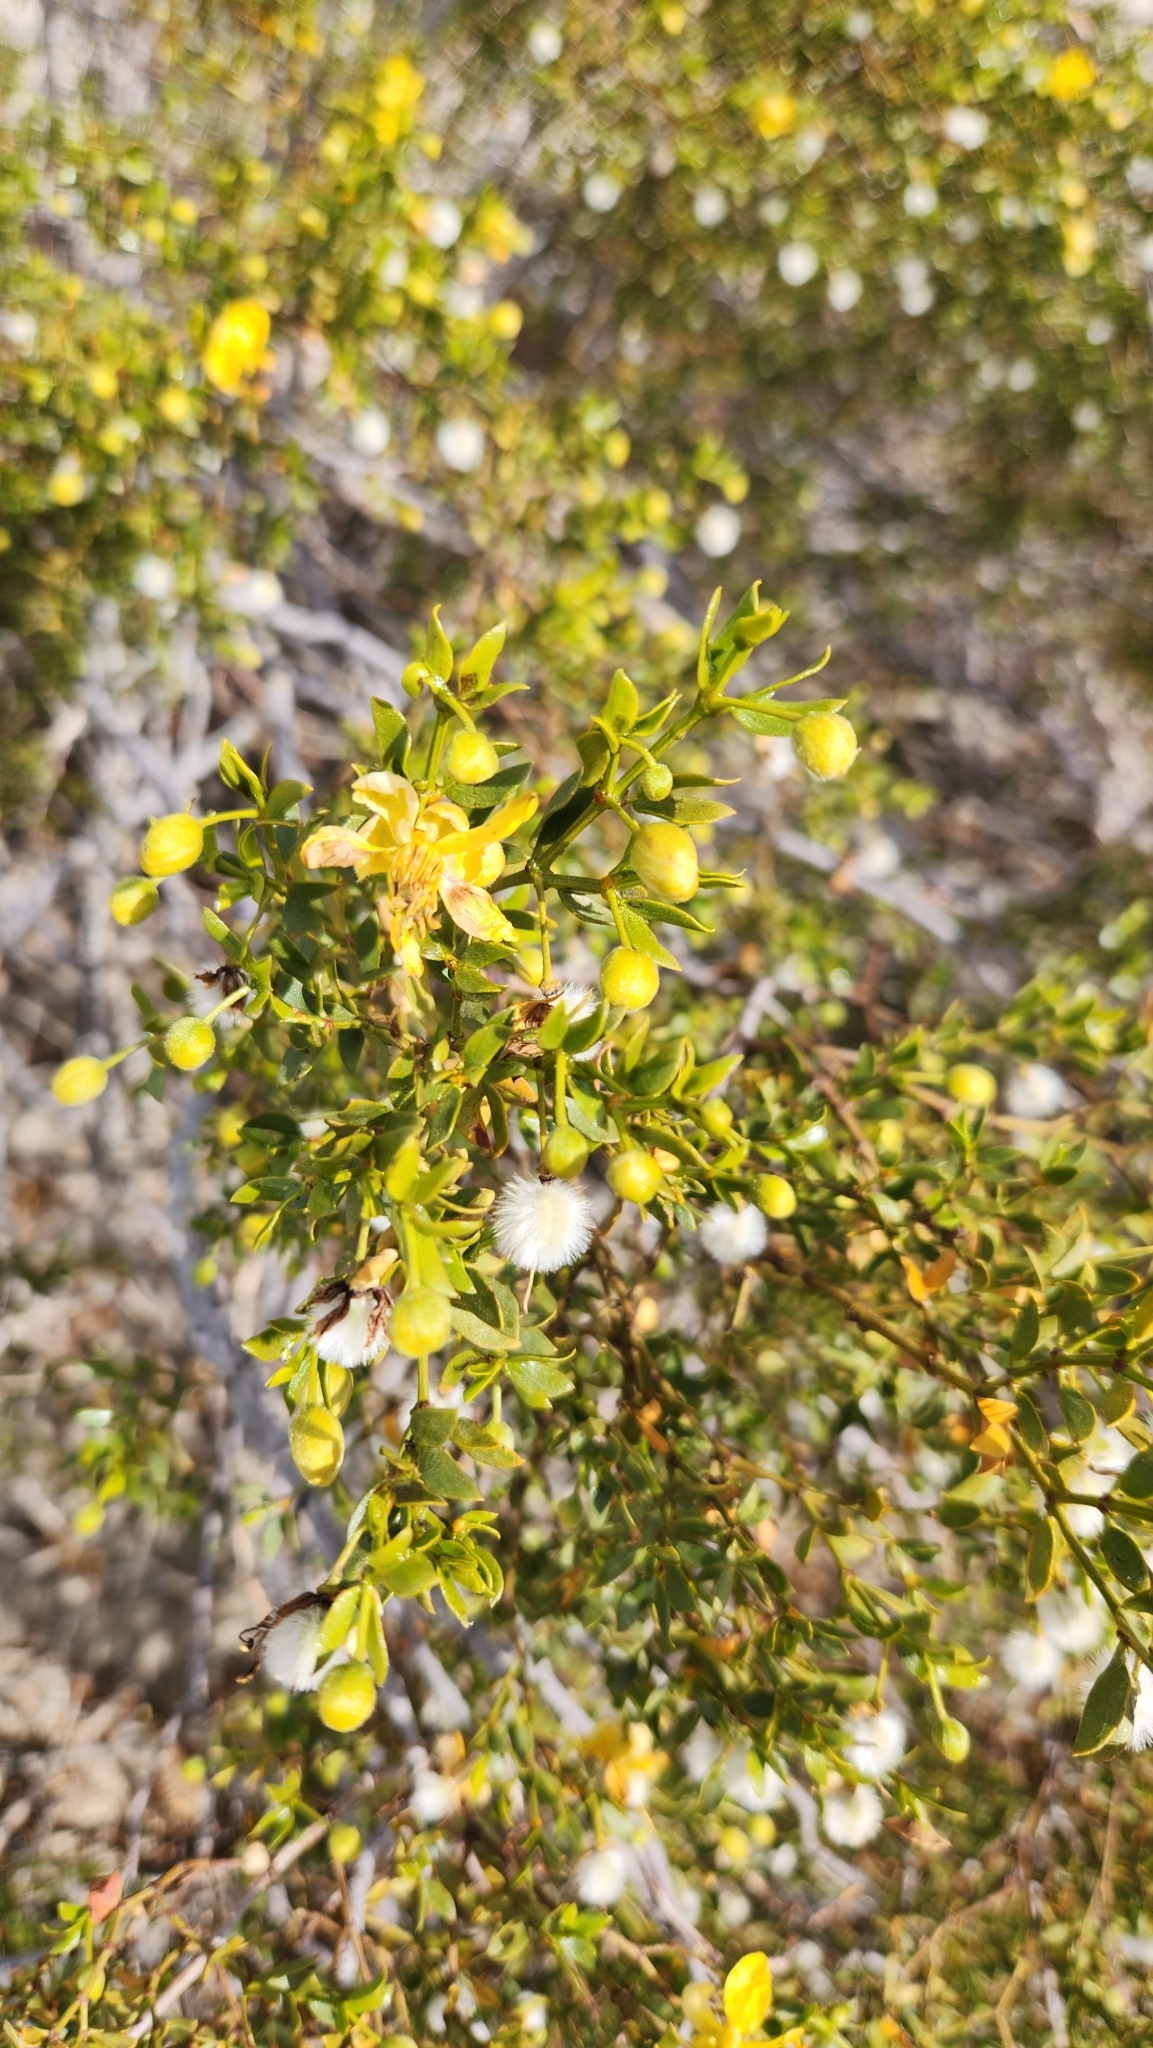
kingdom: Plantae
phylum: Tracheophyta
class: Magnoliopsida
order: Zygophyllales
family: Zygophyllaceae
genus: Larrea
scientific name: Larrea tridentata
